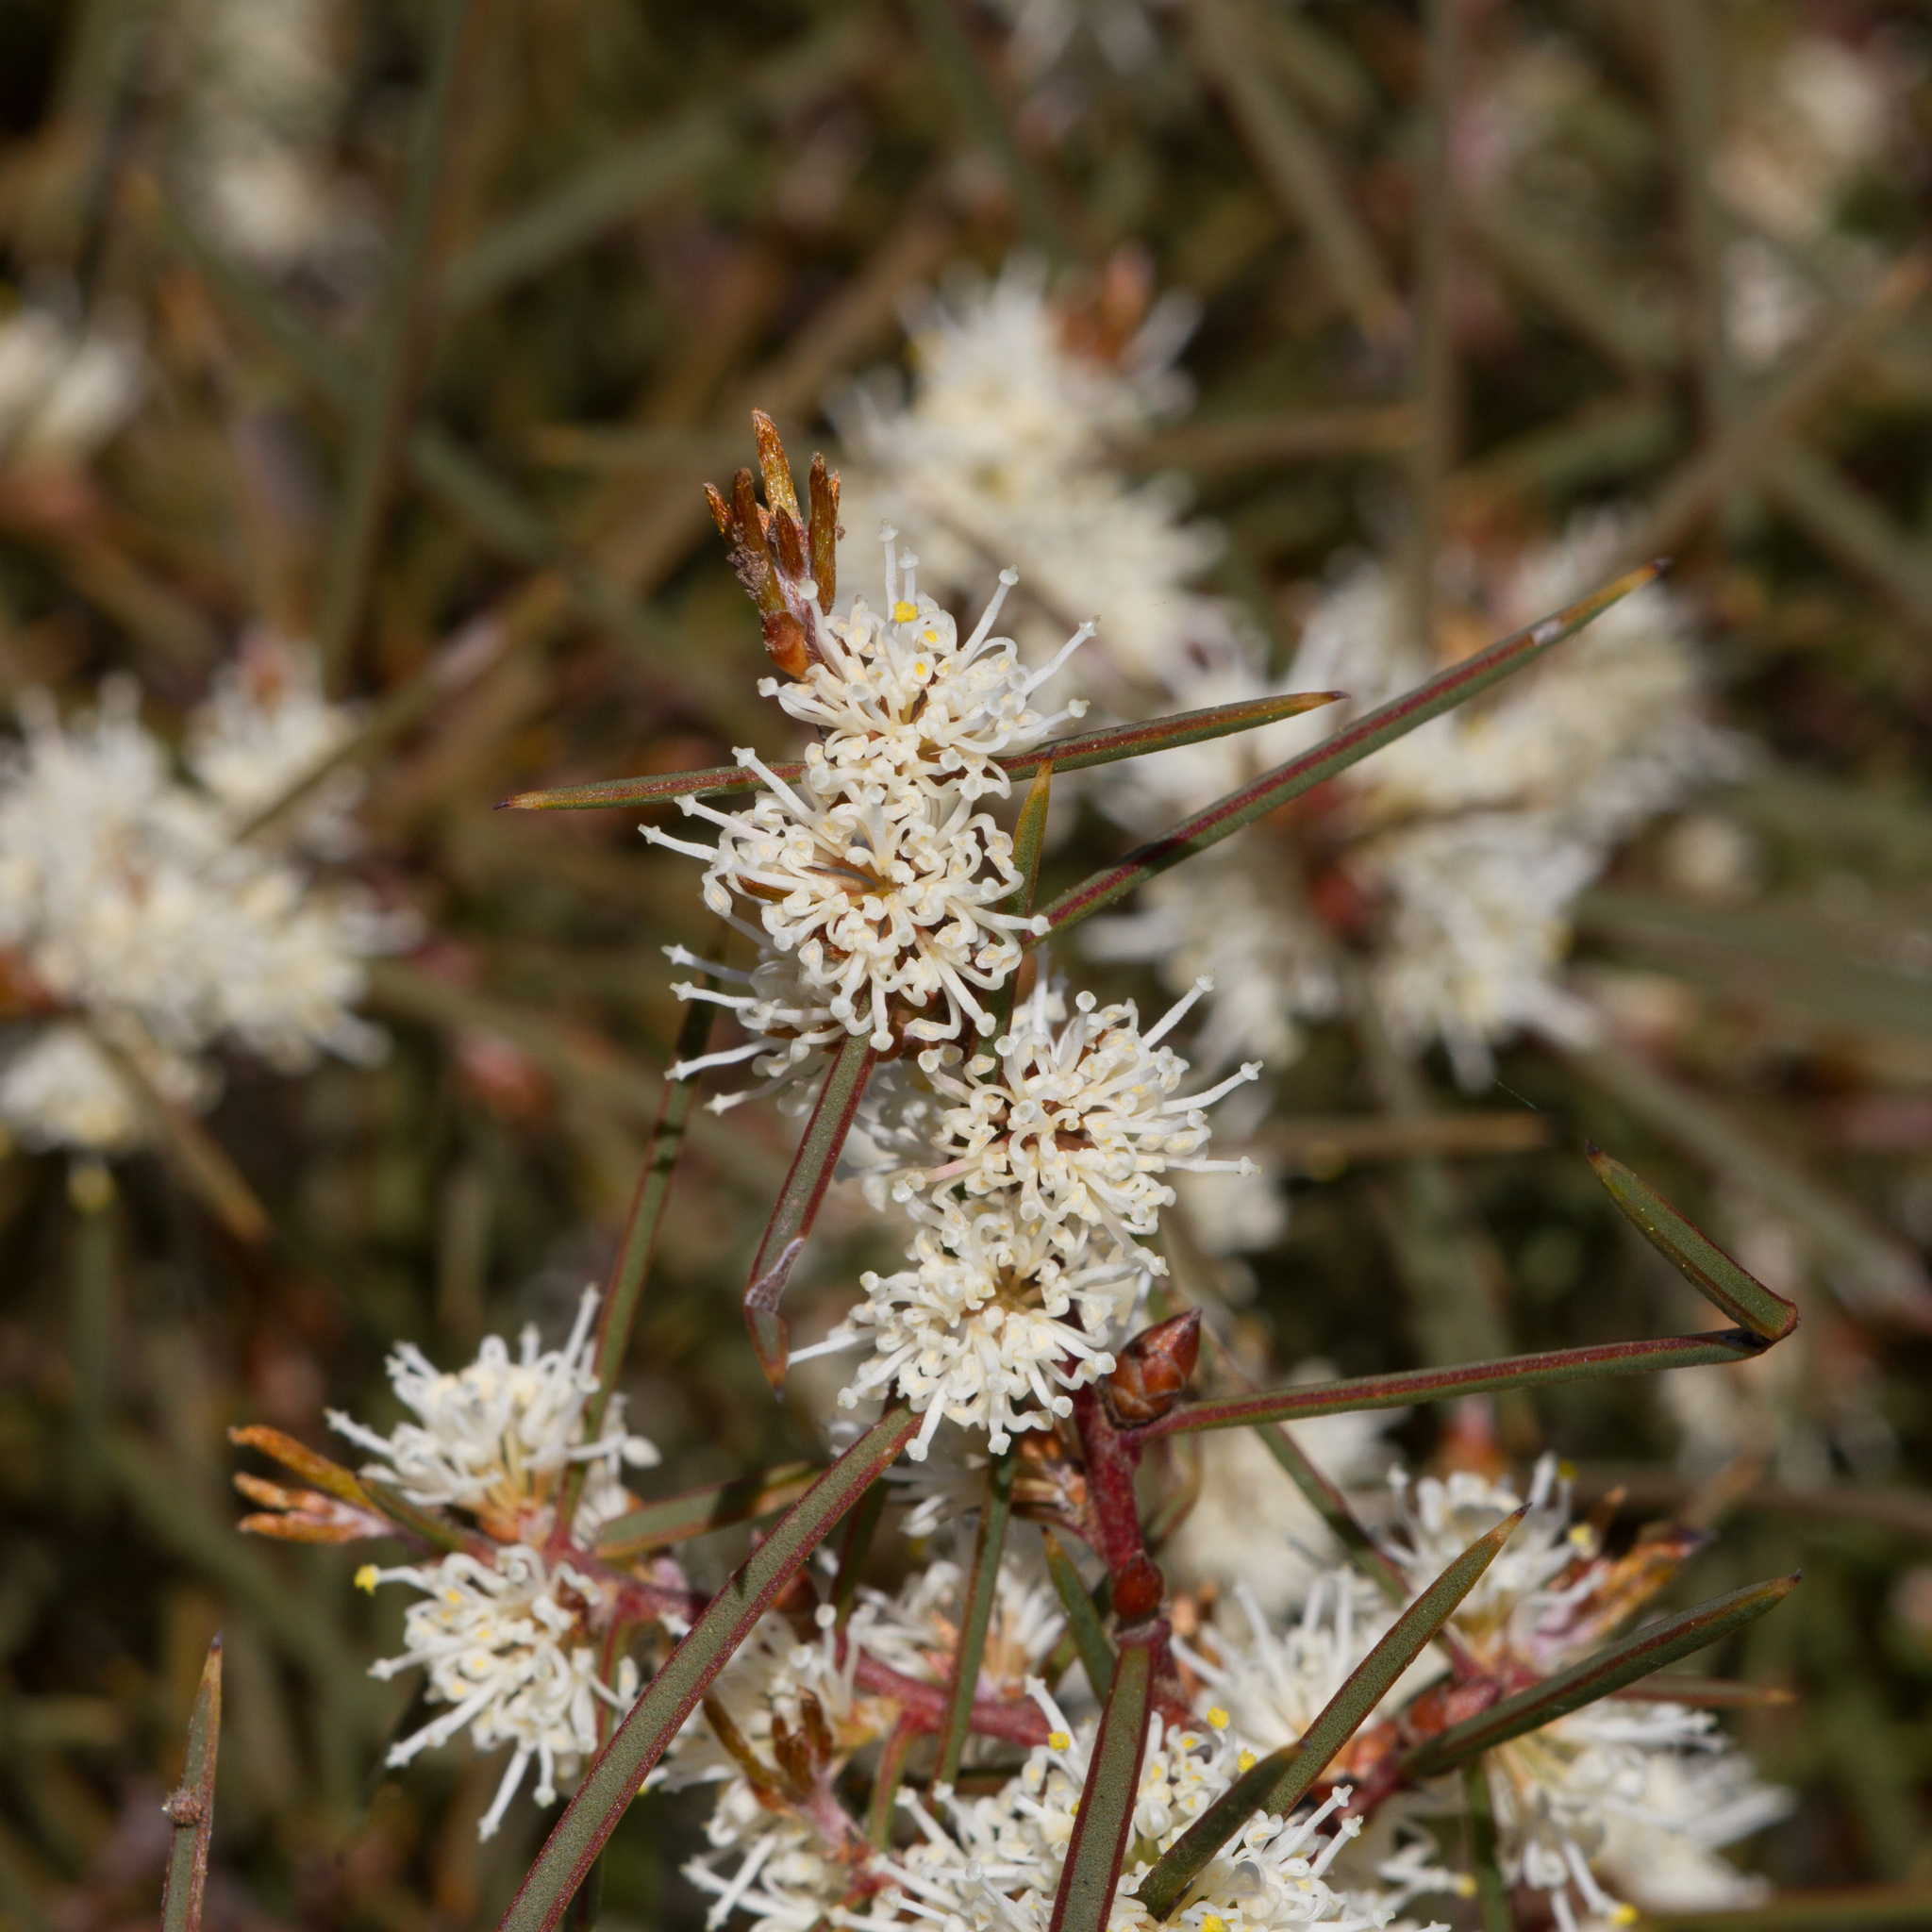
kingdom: Plantae
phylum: Tracheophyta
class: Magnoliopsida
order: Proteales
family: Proteaceae
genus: Hakea
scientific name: Hakea carinata
